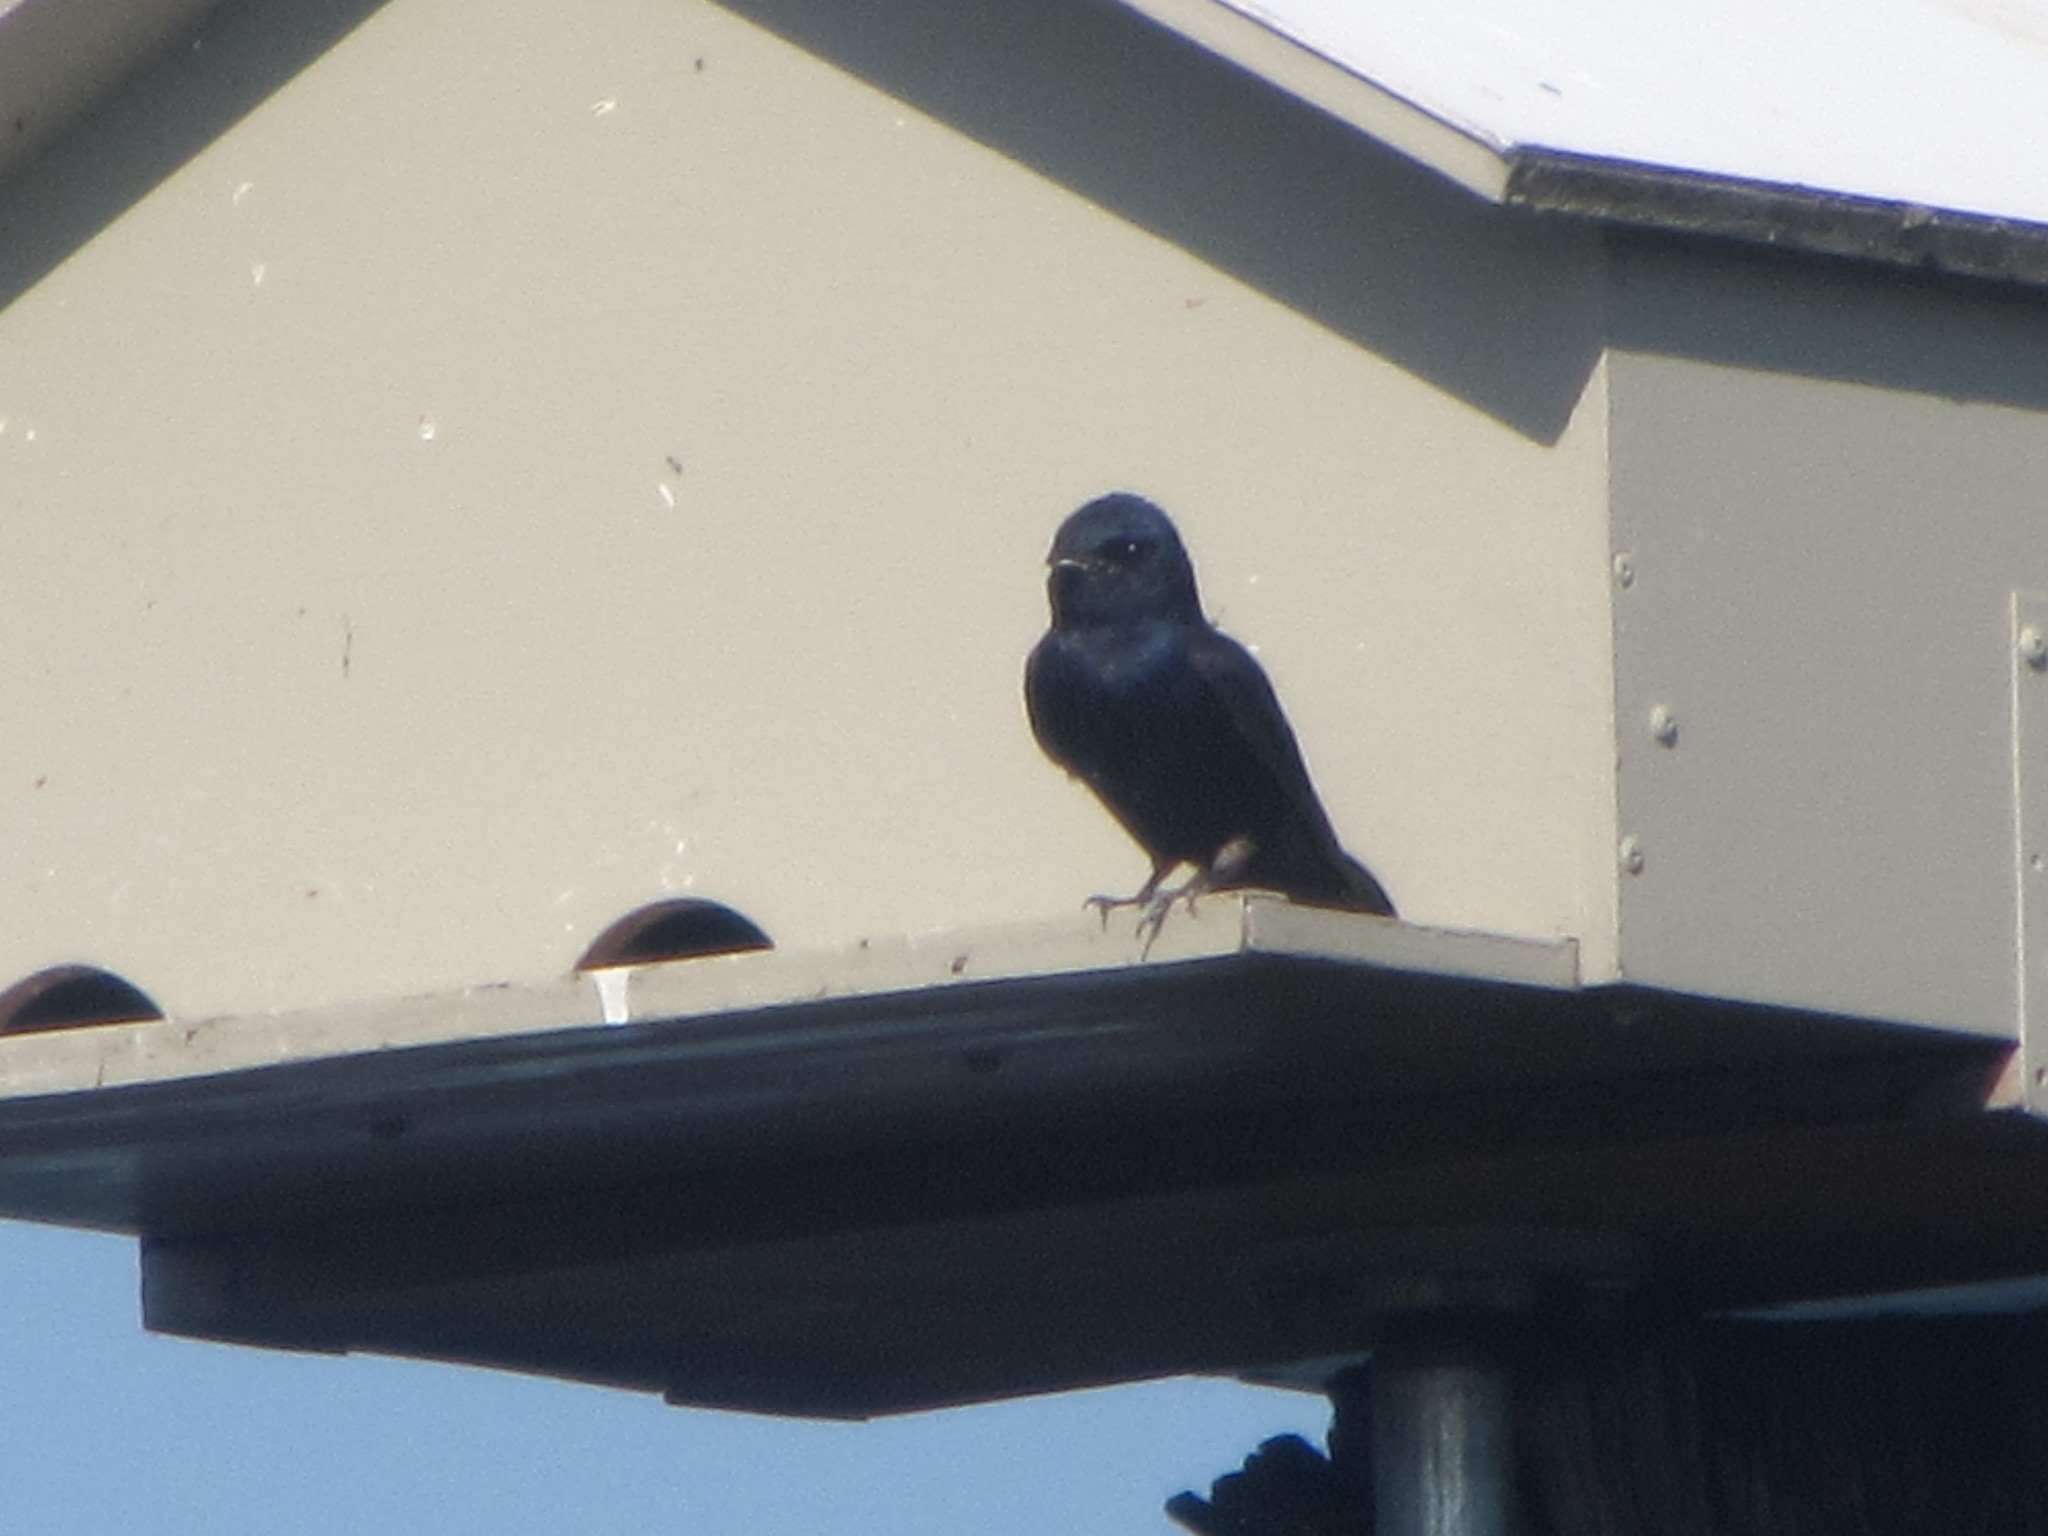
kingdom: Animalia
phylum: Chordata
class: Aves
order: Passeriformes
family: Hirundinidae
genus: Progne
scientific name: Progne subis
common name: Purple martin
